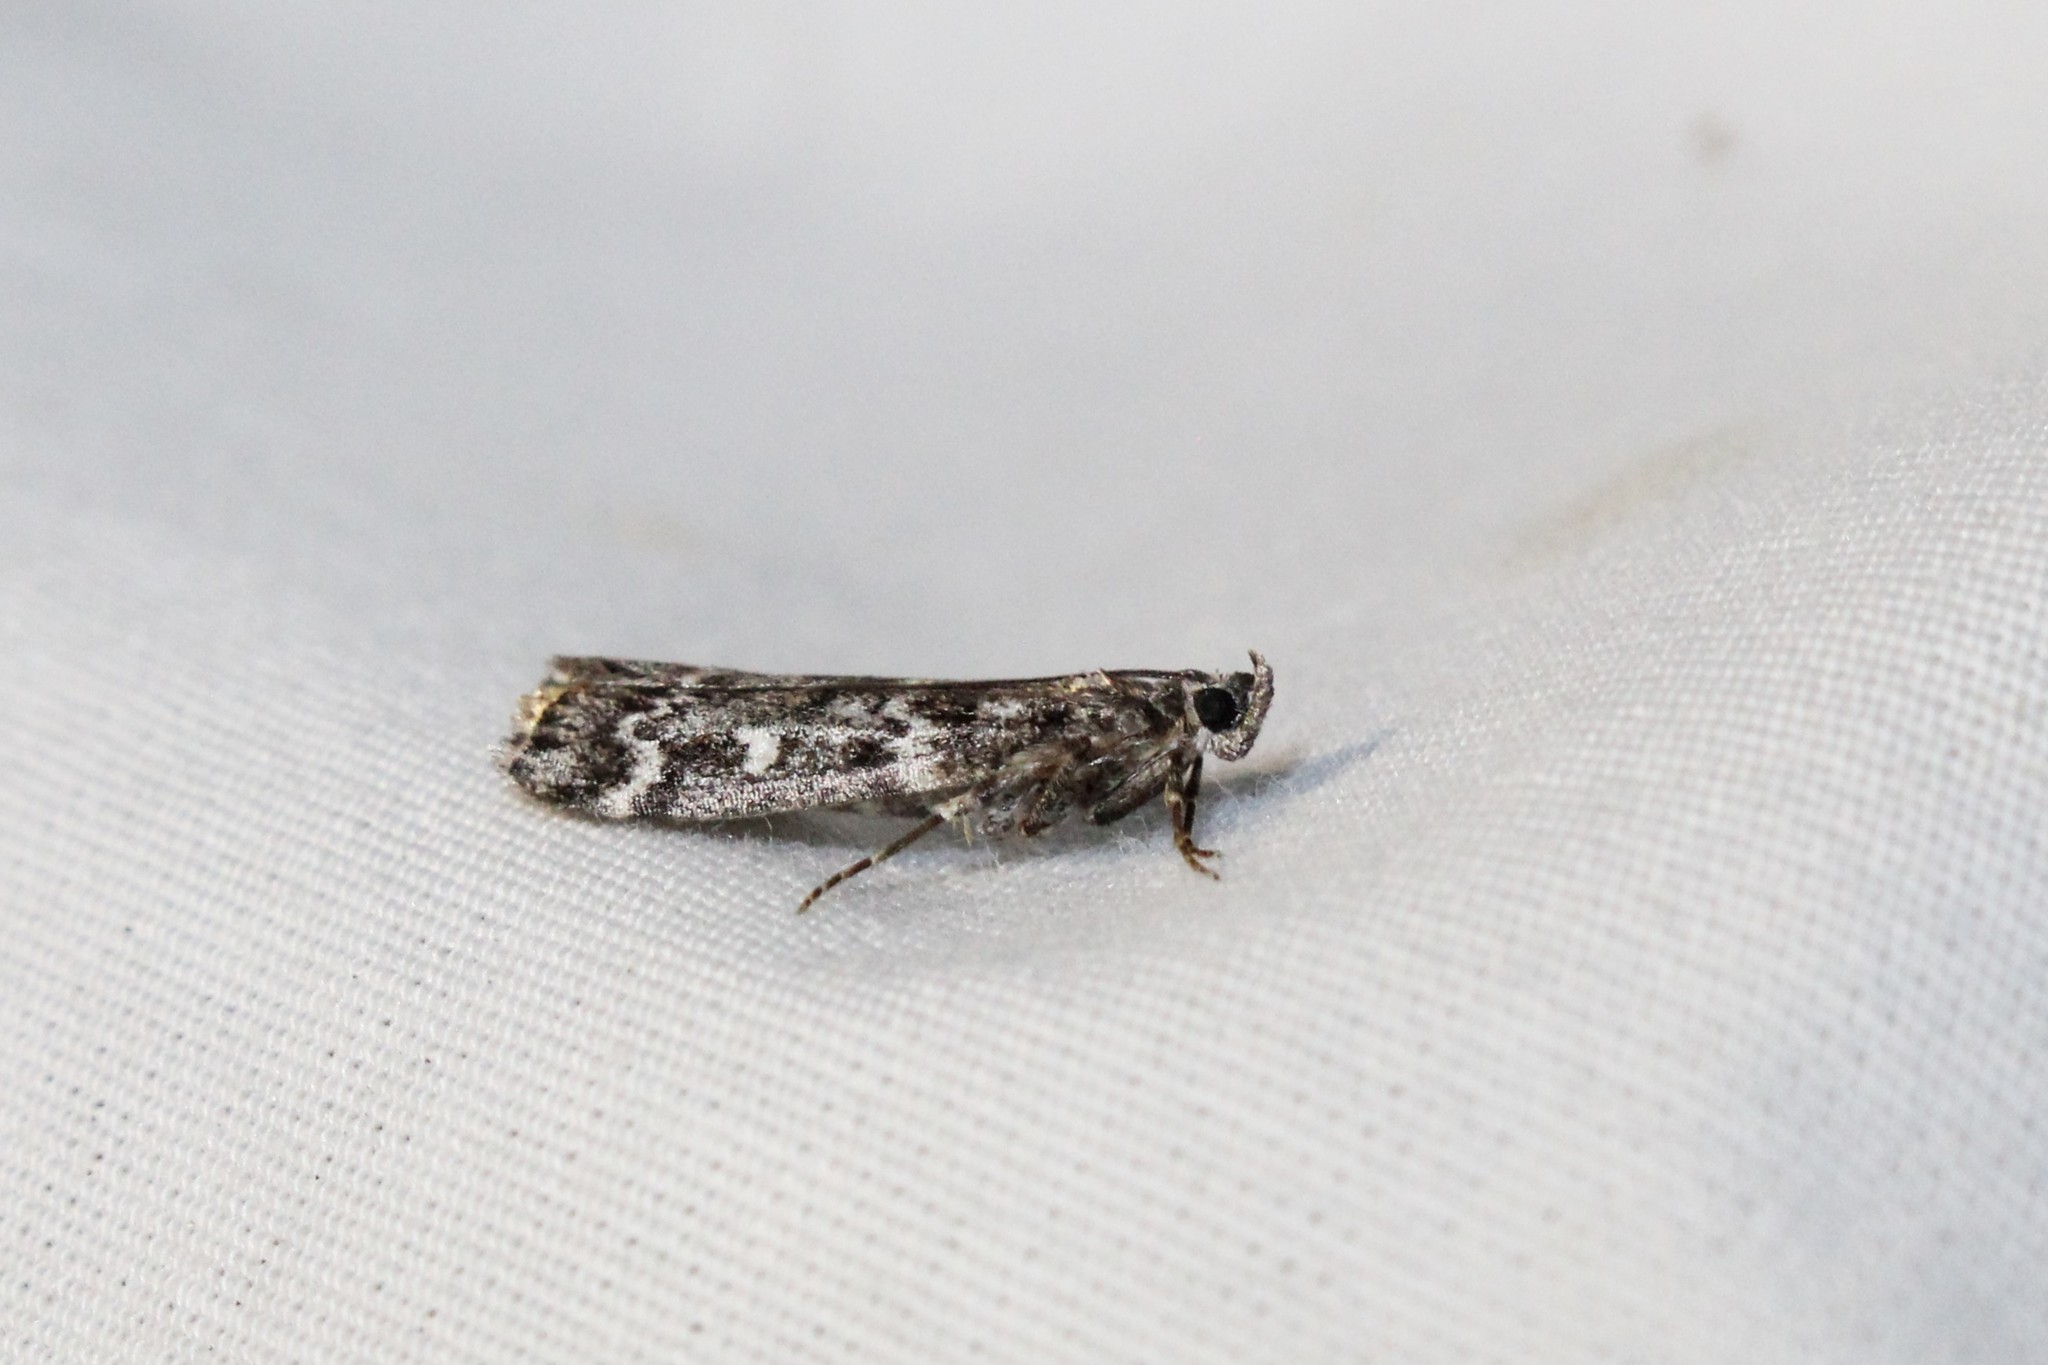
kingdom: Animalia
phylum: Arthropoda
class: Insecta
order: Lepidoptera
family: Pyralidae
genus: Dioryctria
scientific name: Dioryctria reniculelloides
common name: Spruce coneworm moth
